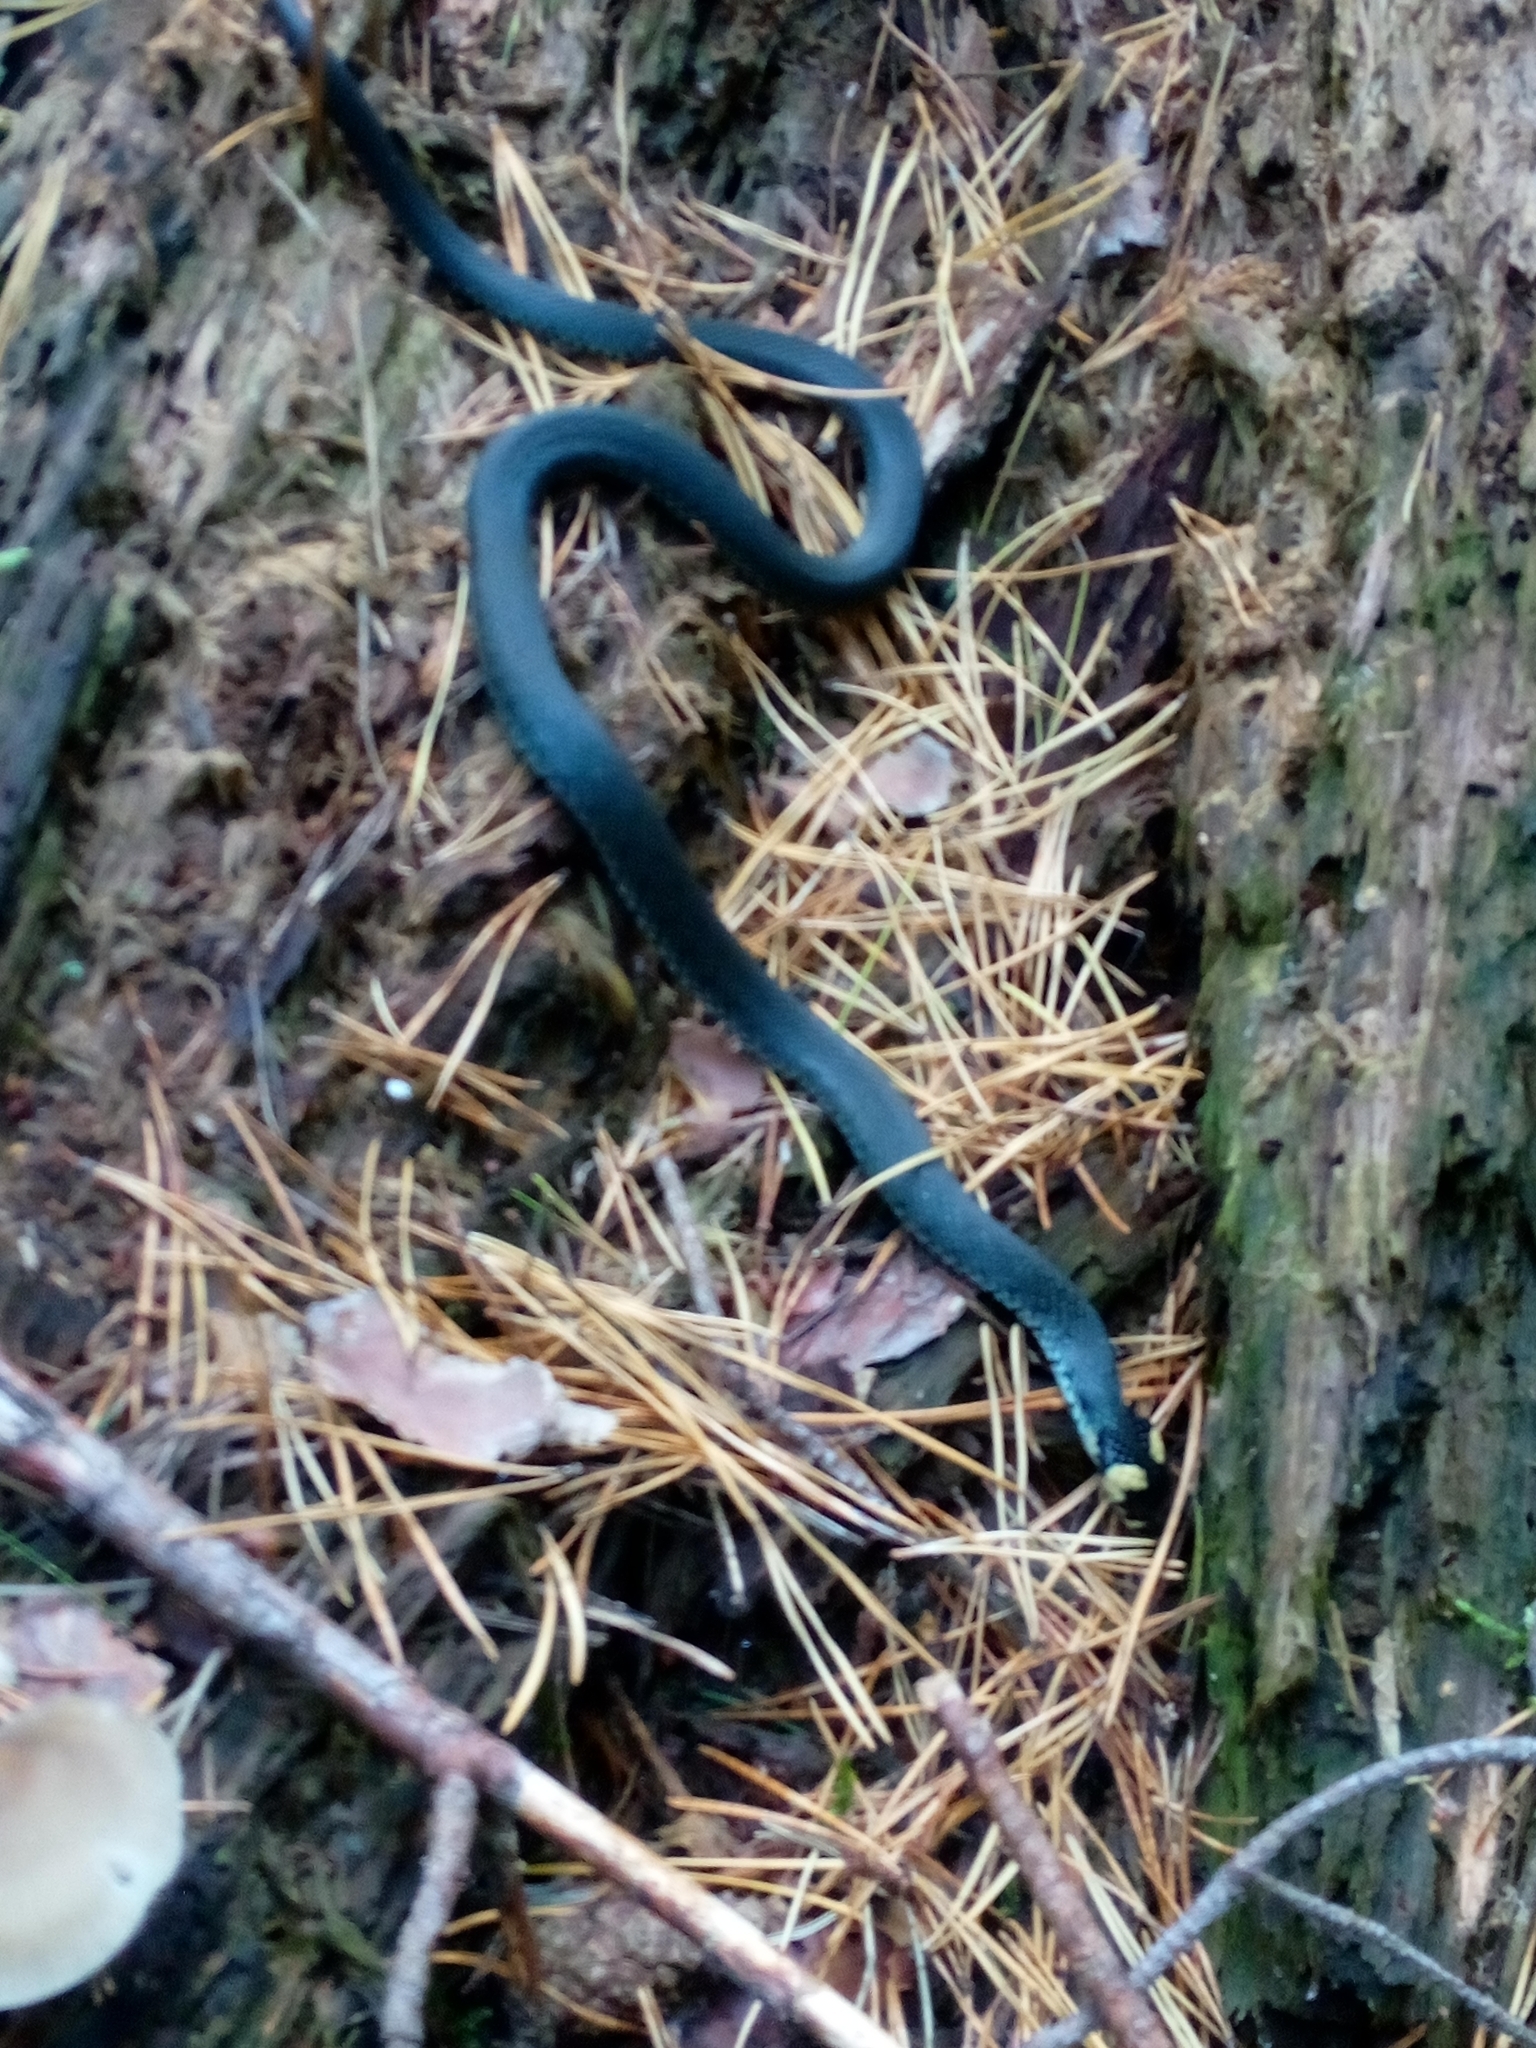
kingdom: Animalia
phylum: Chordata
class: Squamata
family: Colubridae
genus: Natrix
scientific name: Natrix natrix
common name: Grass snake
